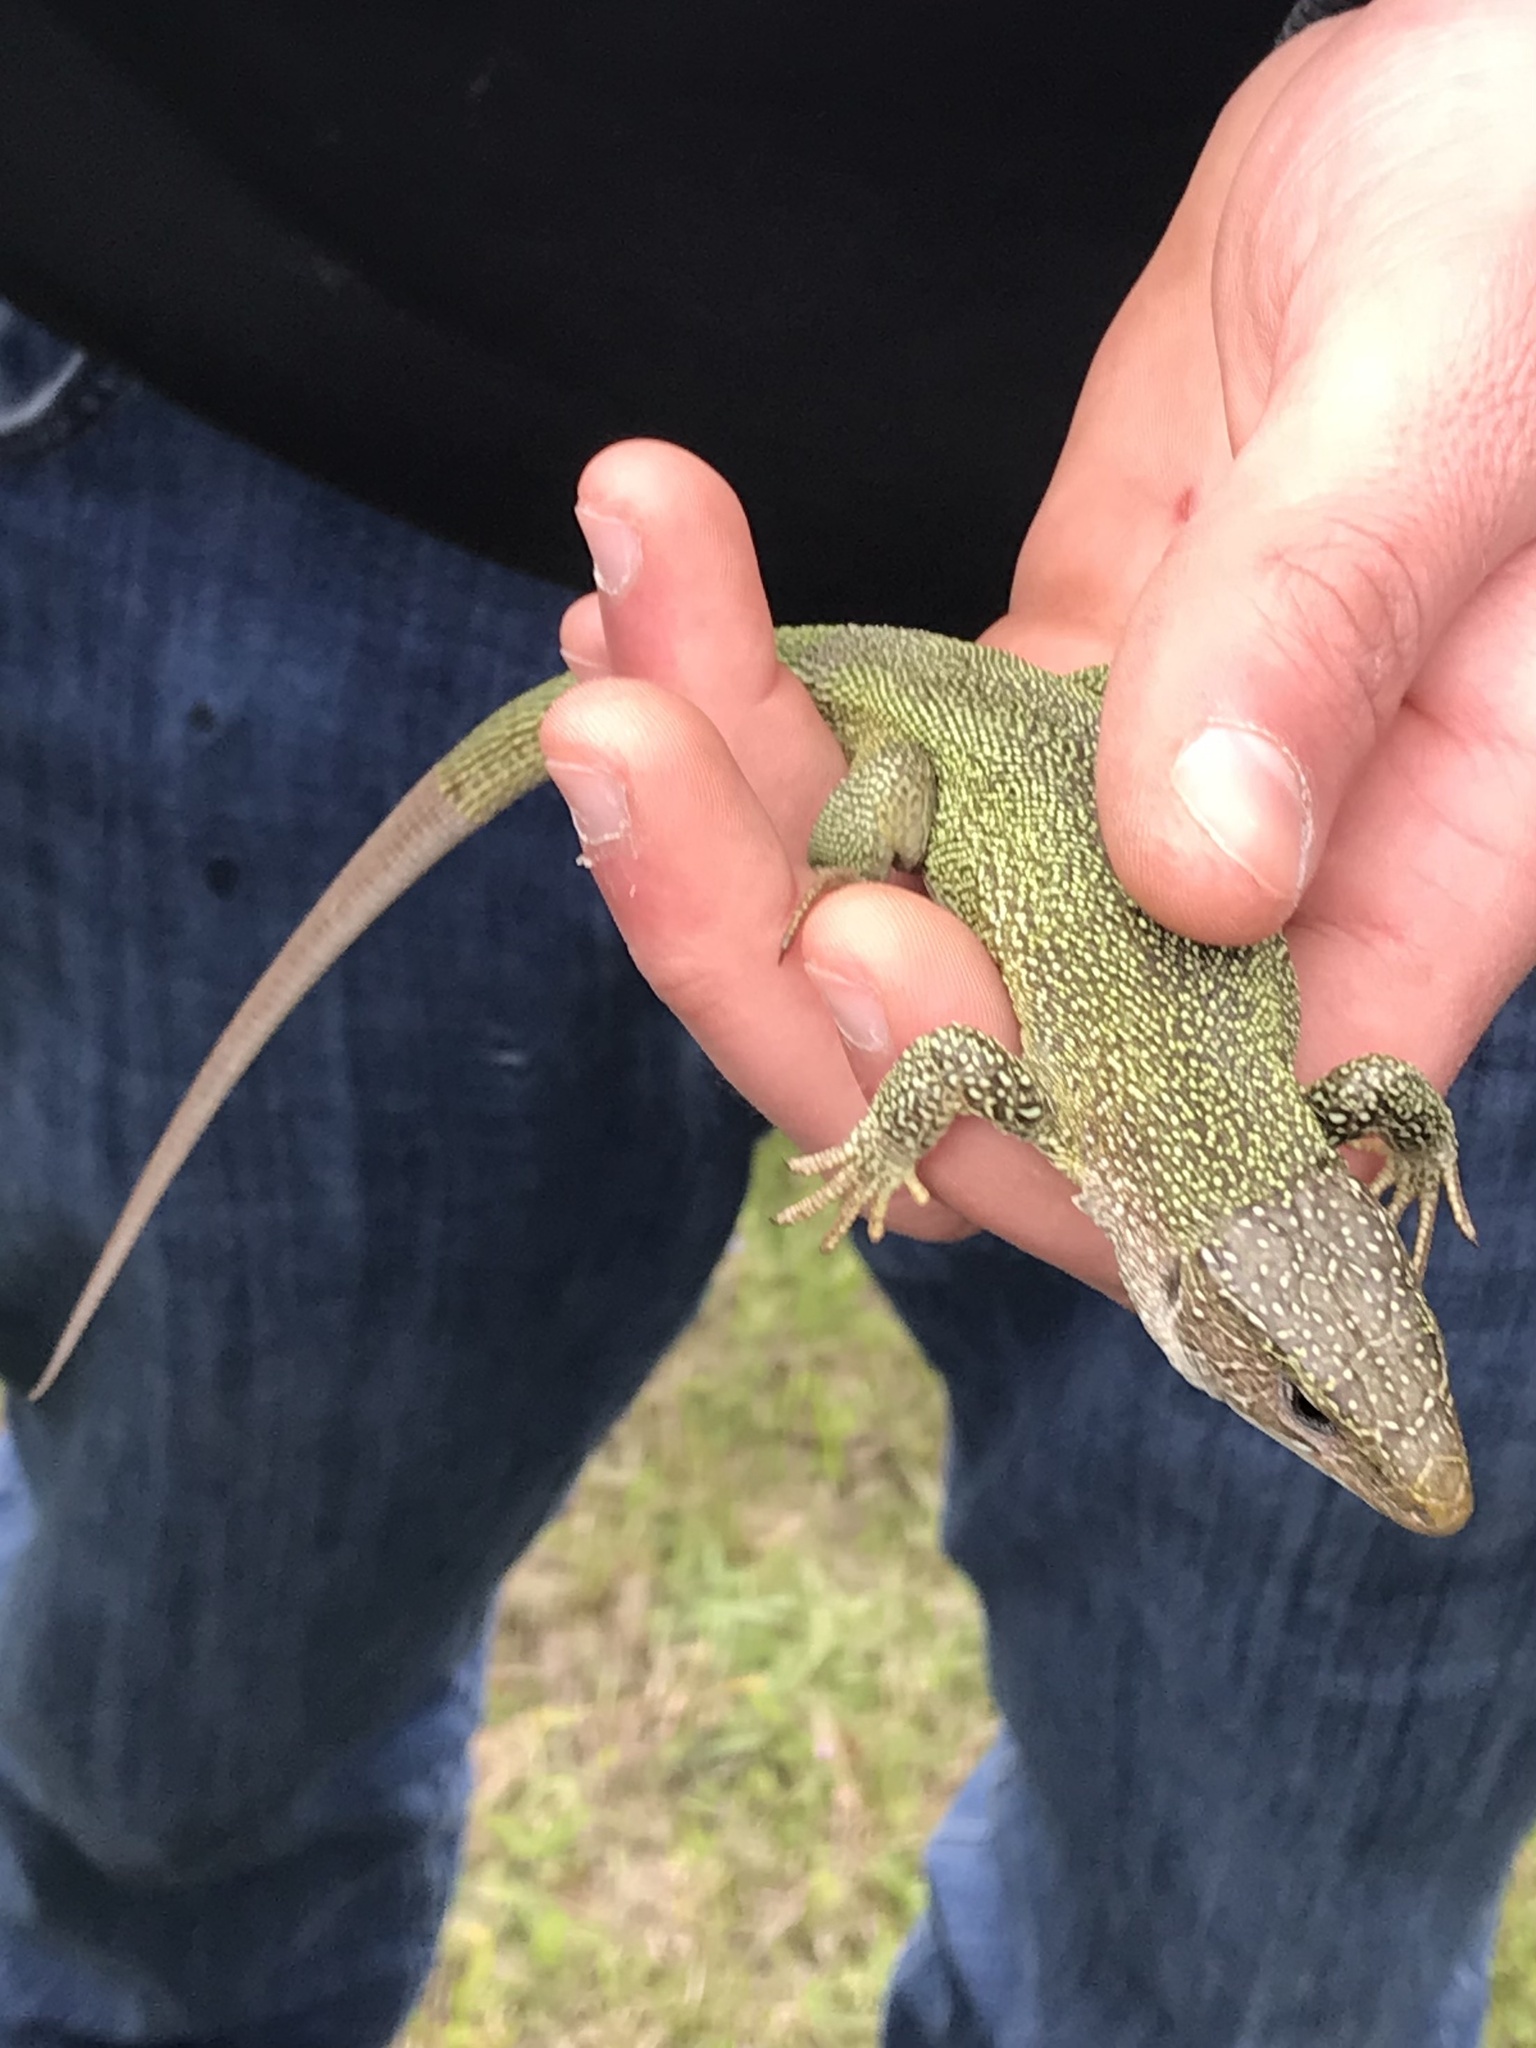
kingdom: Animalia
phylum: Chordata
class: Squamata
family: Lacertidae
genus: Lacerta
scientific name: Lacerta viridis
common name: European green lizard
